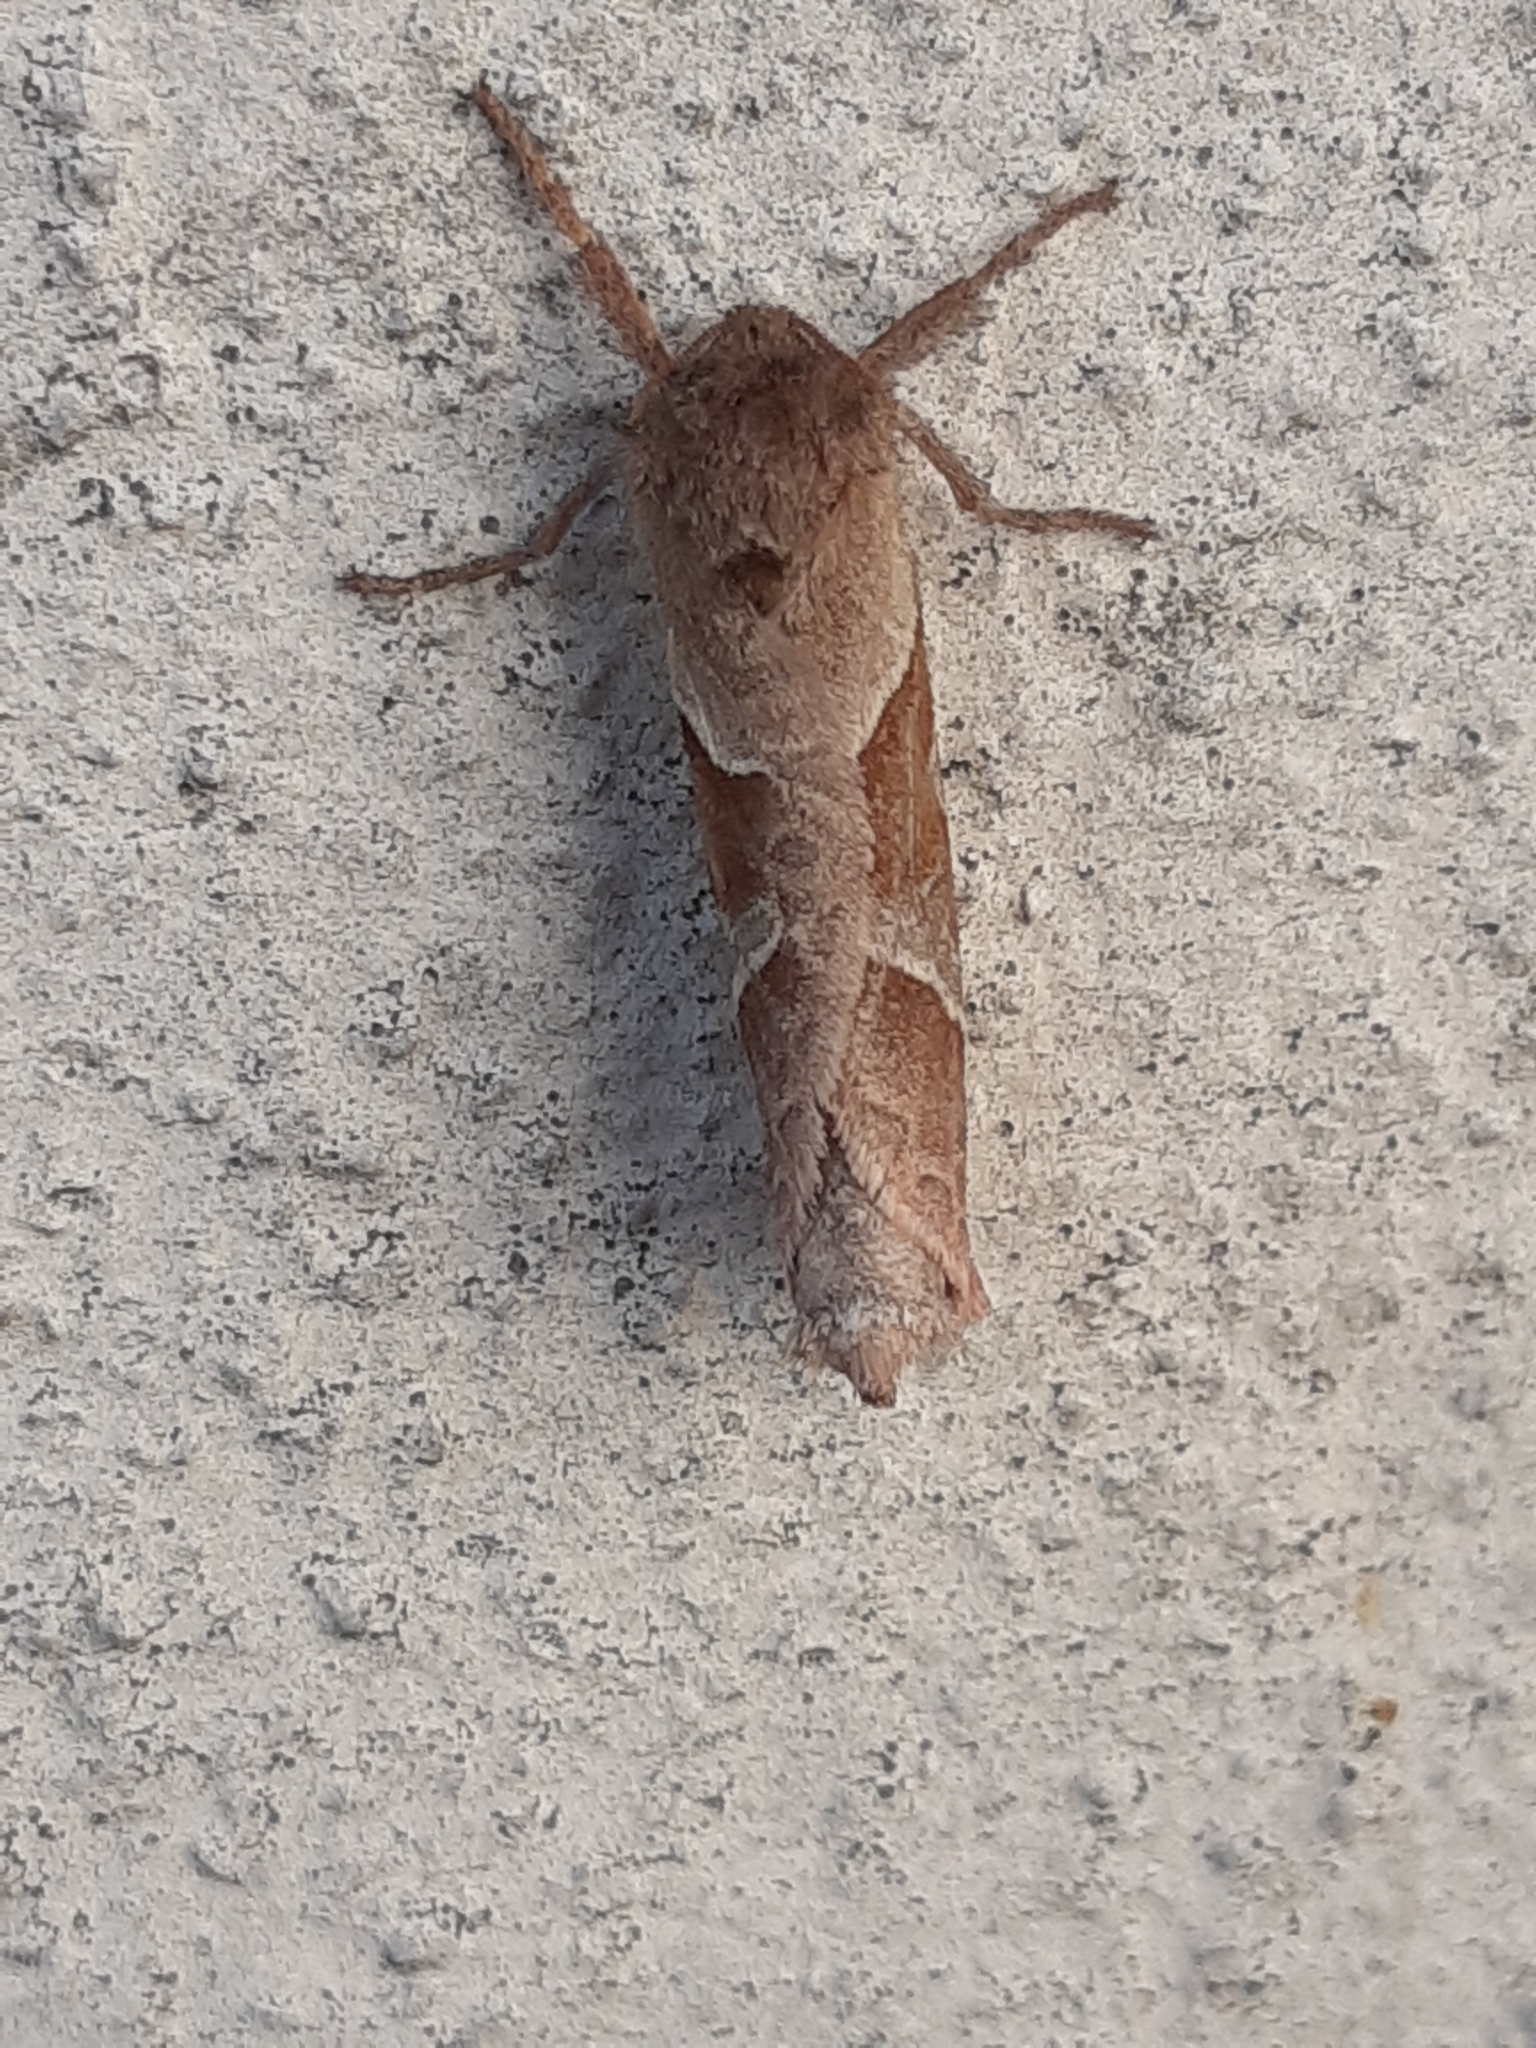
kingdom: Animalia
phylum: Arthropoda
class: Insecta
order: Lepidoptera
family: Hepialidae
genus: Triodia
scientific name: Triodia sylvina
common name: Orange swift
